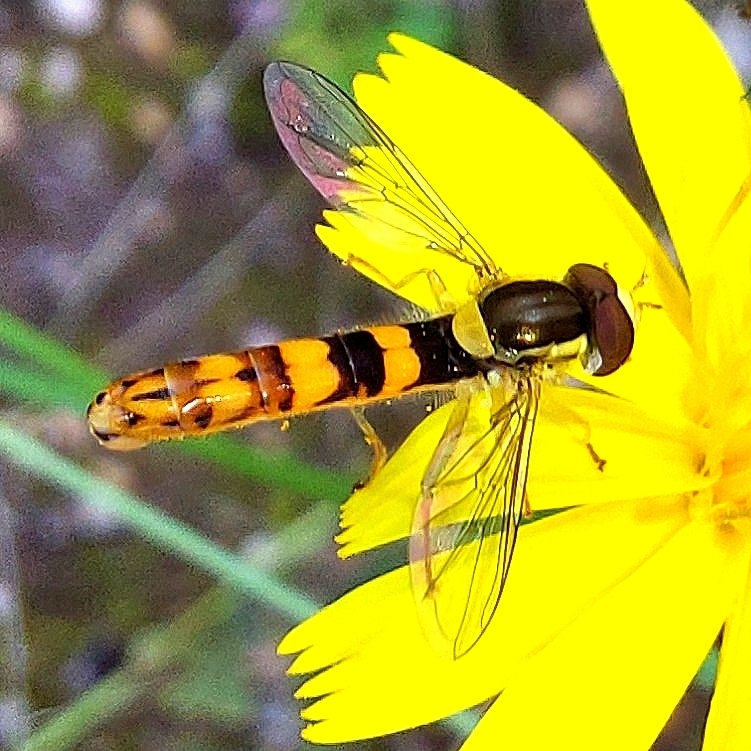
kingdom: Animalia
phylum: Arthropoda
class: Insecta
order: Diptera
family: Syrphidae
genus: Sphaerophoria
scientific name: Sphaerophoria scripta
